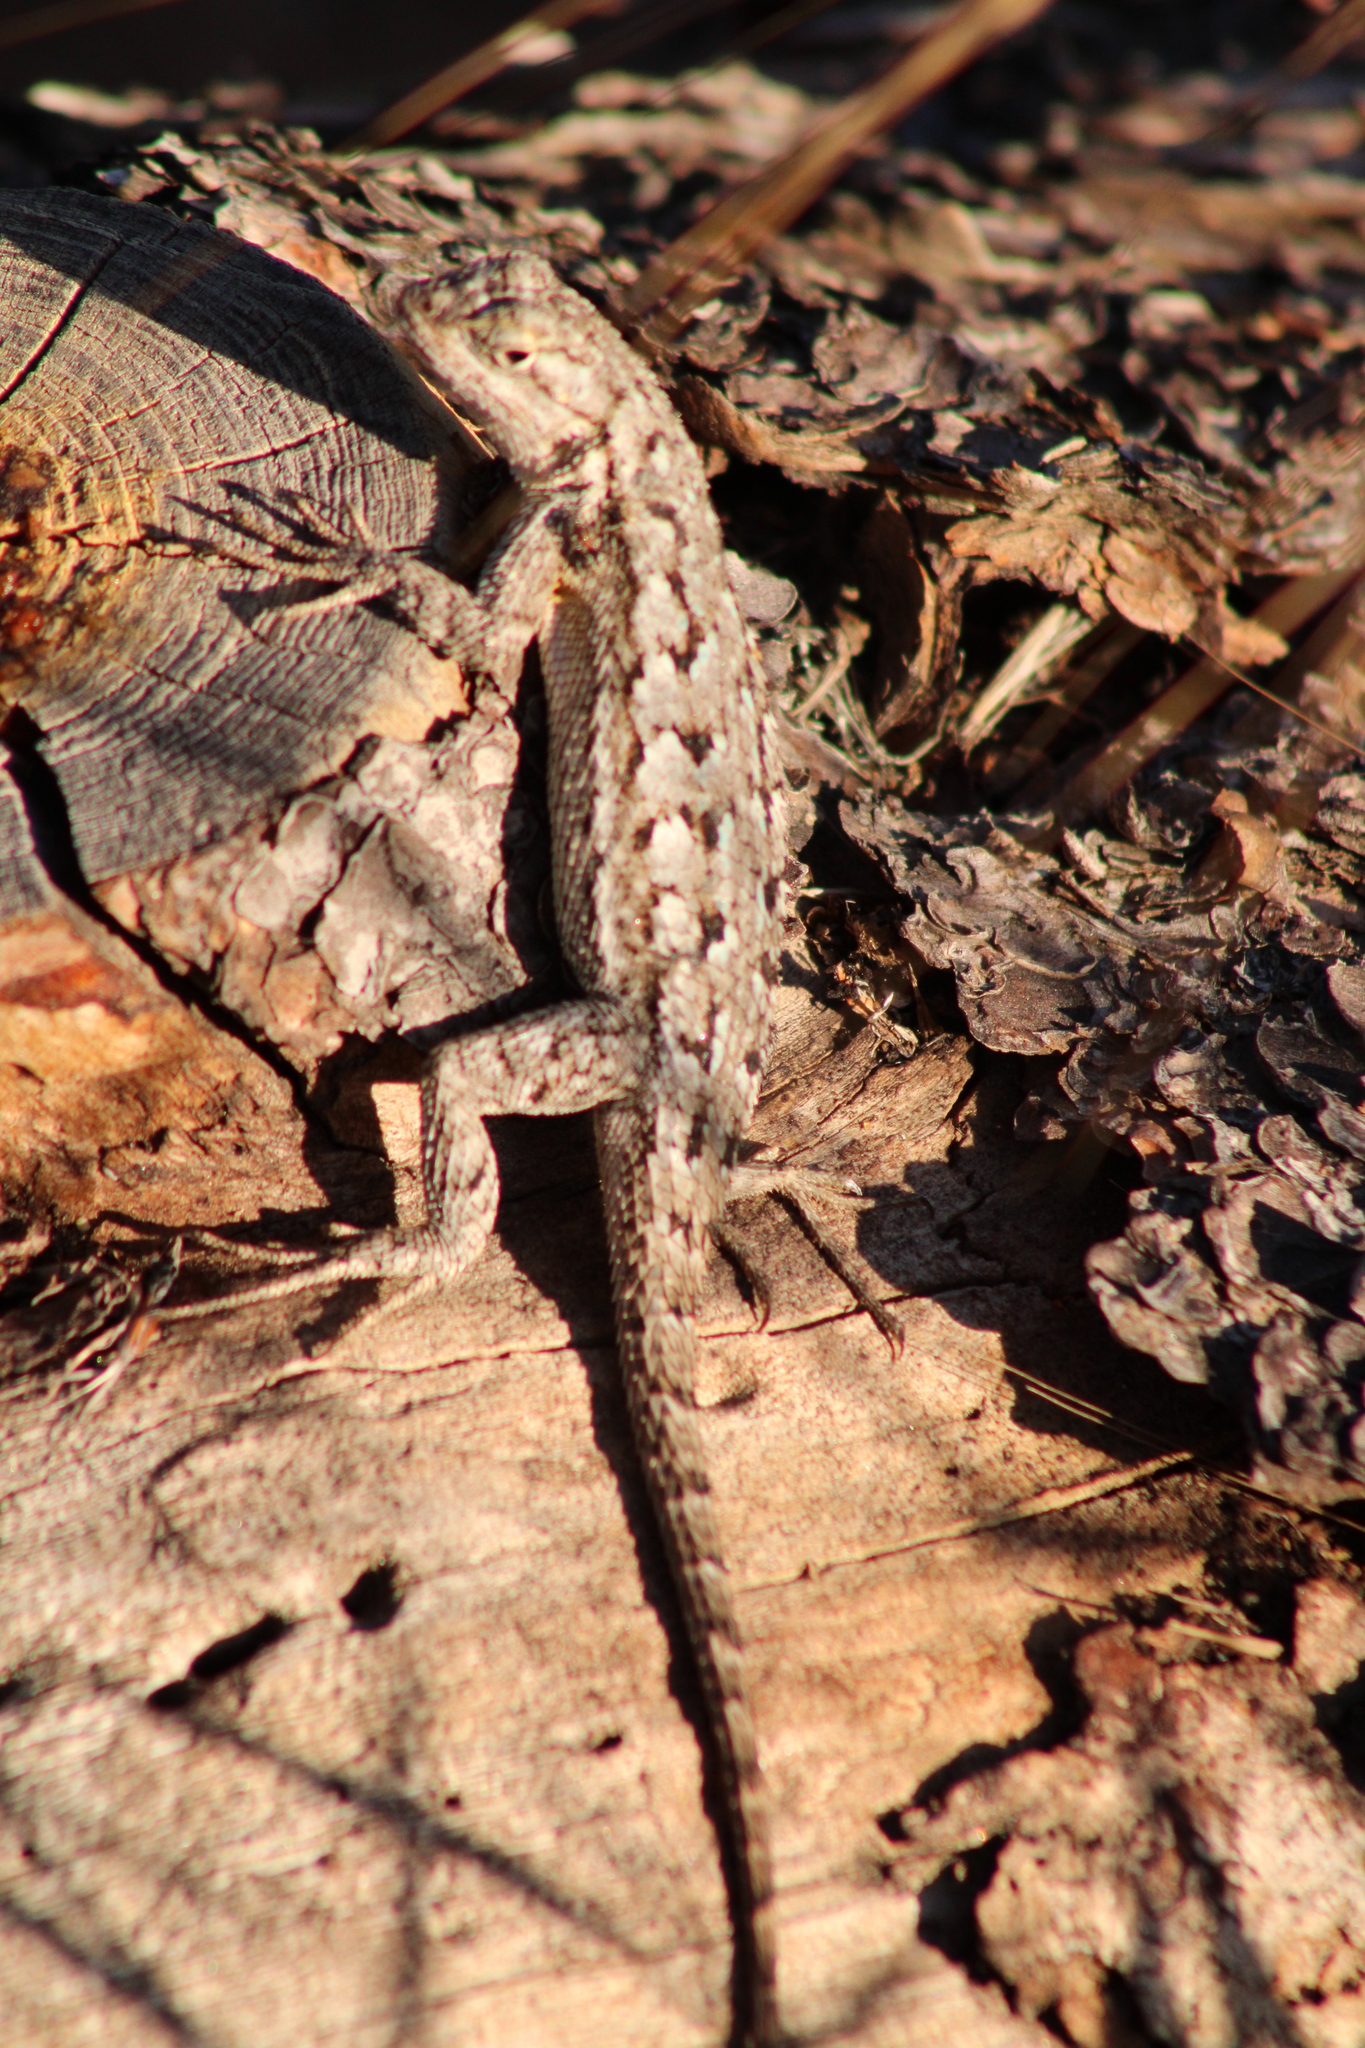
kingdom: Animalia
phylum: Chordata
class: Squamata
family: Phrynosomatidae
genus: Sceloporus
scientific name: Sceloporus occidentalis
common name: Western fence lizard
